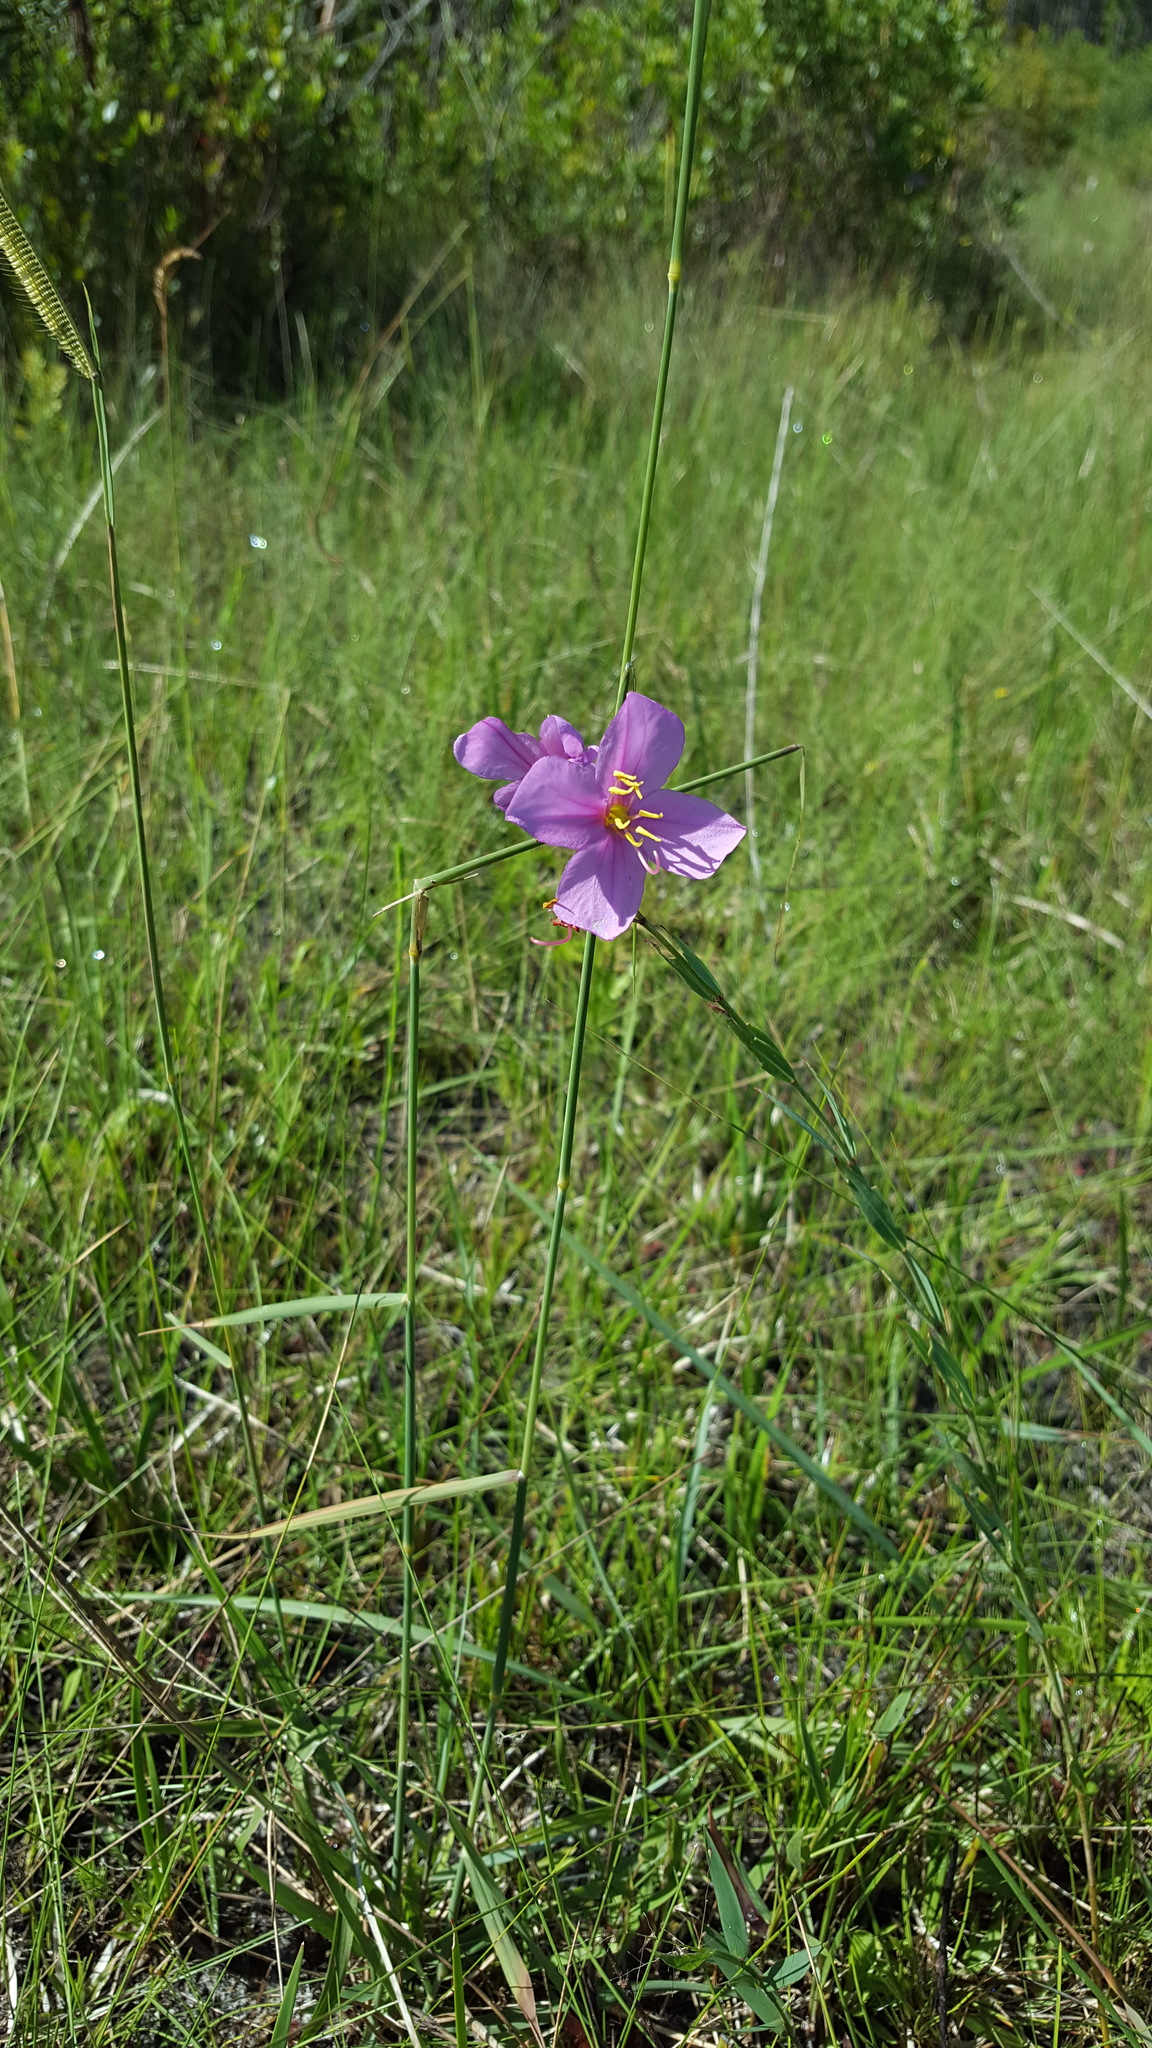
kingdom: Plantae
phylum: Tracheophyta
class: Magnoliopsida
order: Myrtales
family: Melastomataceae
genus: Rhexia
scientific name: Rhexia alifanus
